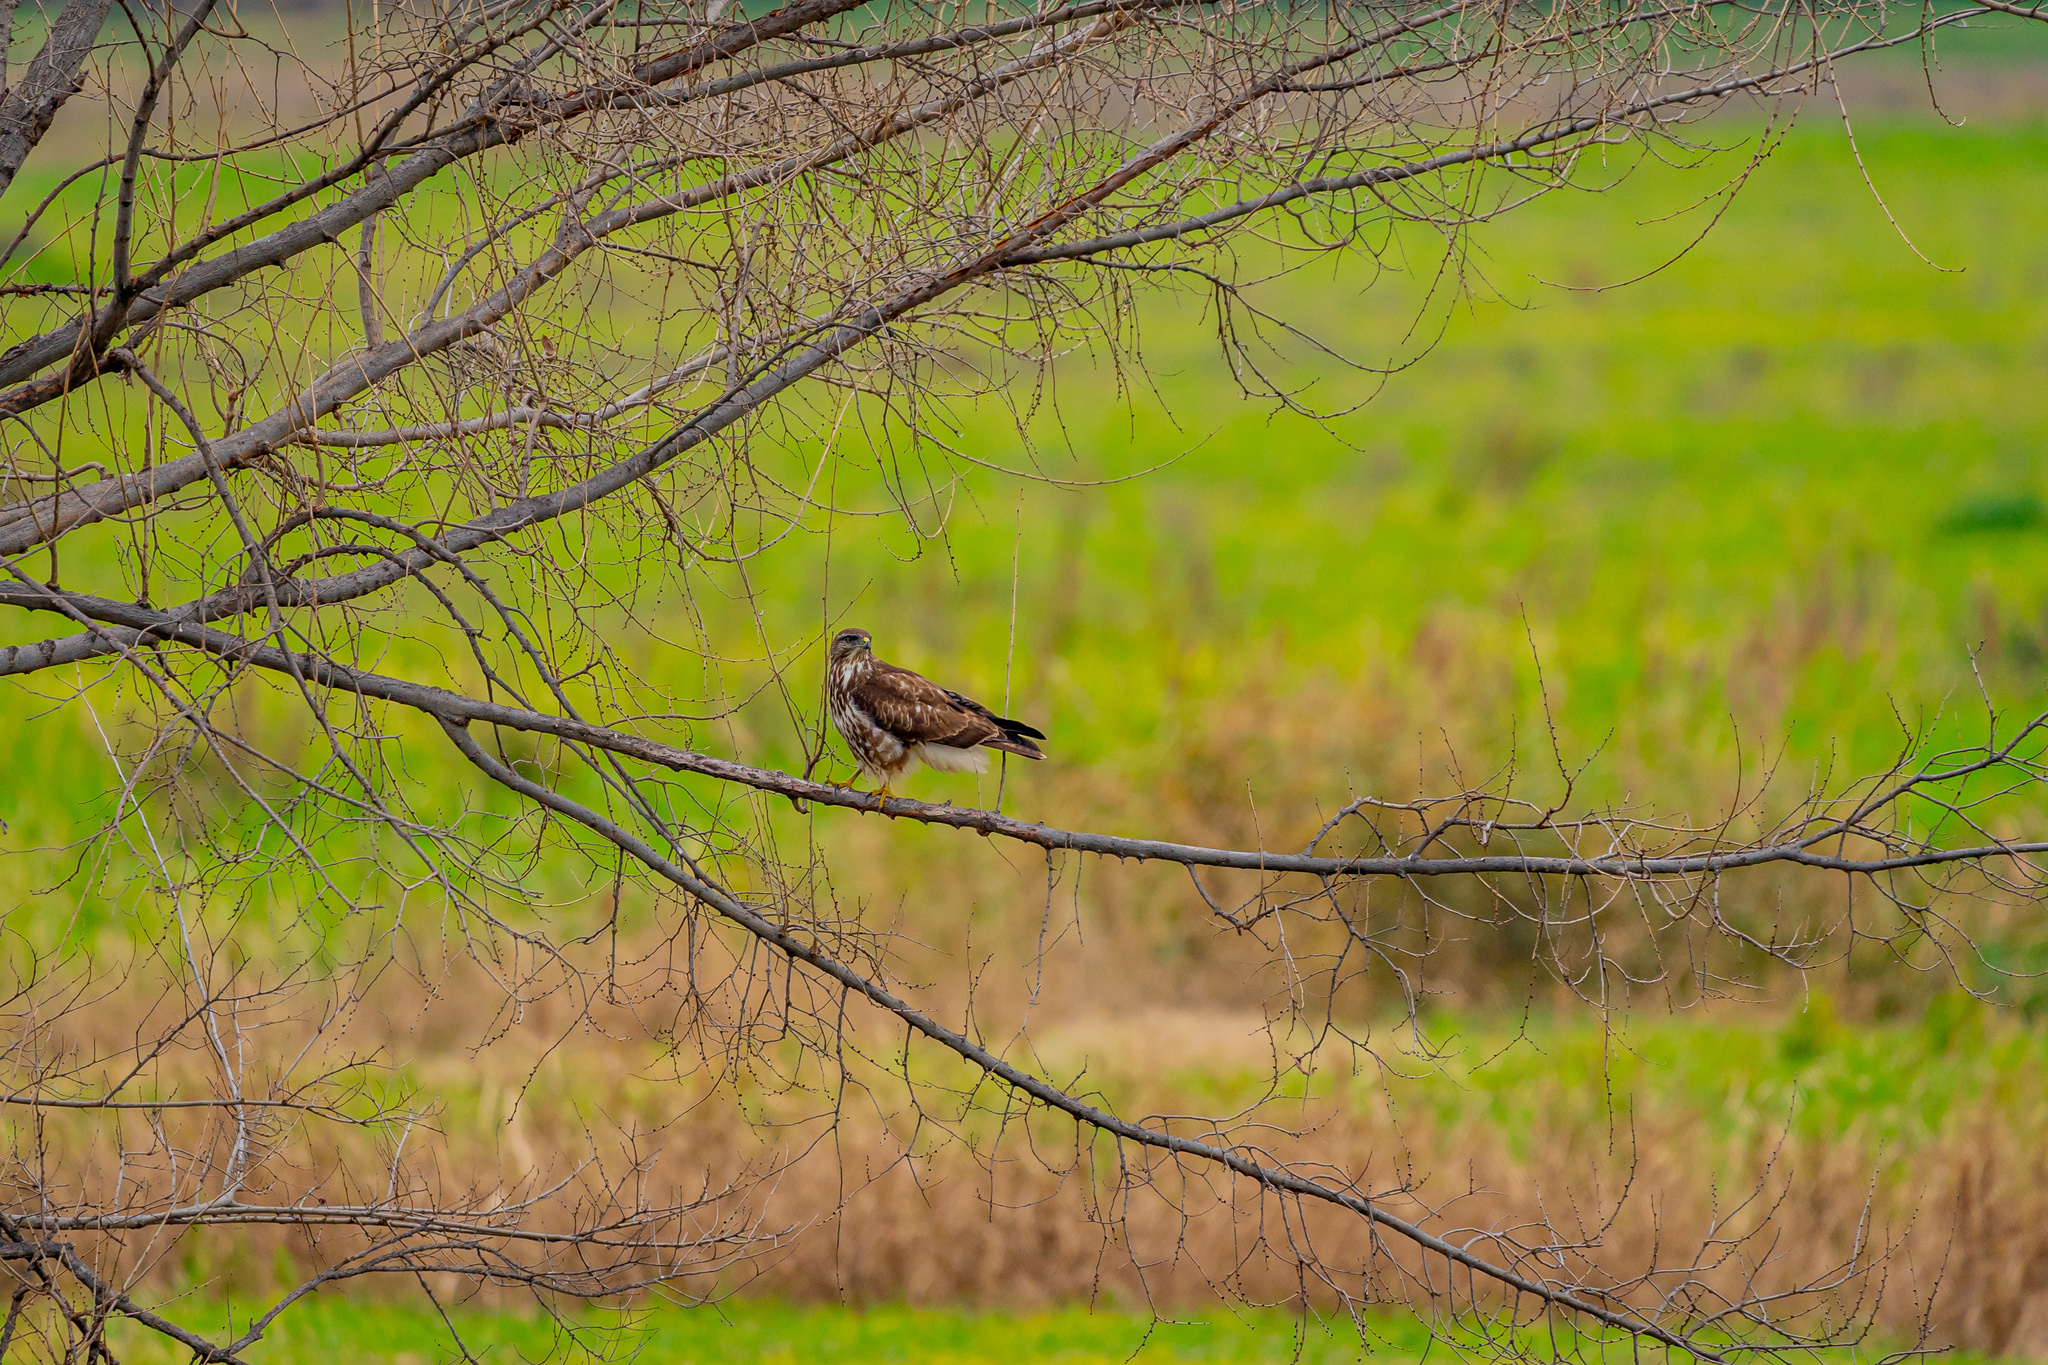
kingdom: Animalia
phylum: Chordata
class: Aves
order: Accipitriformes
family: Accipitridae
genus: Buteo
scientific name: Buteo buteo
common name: Common buzzard
